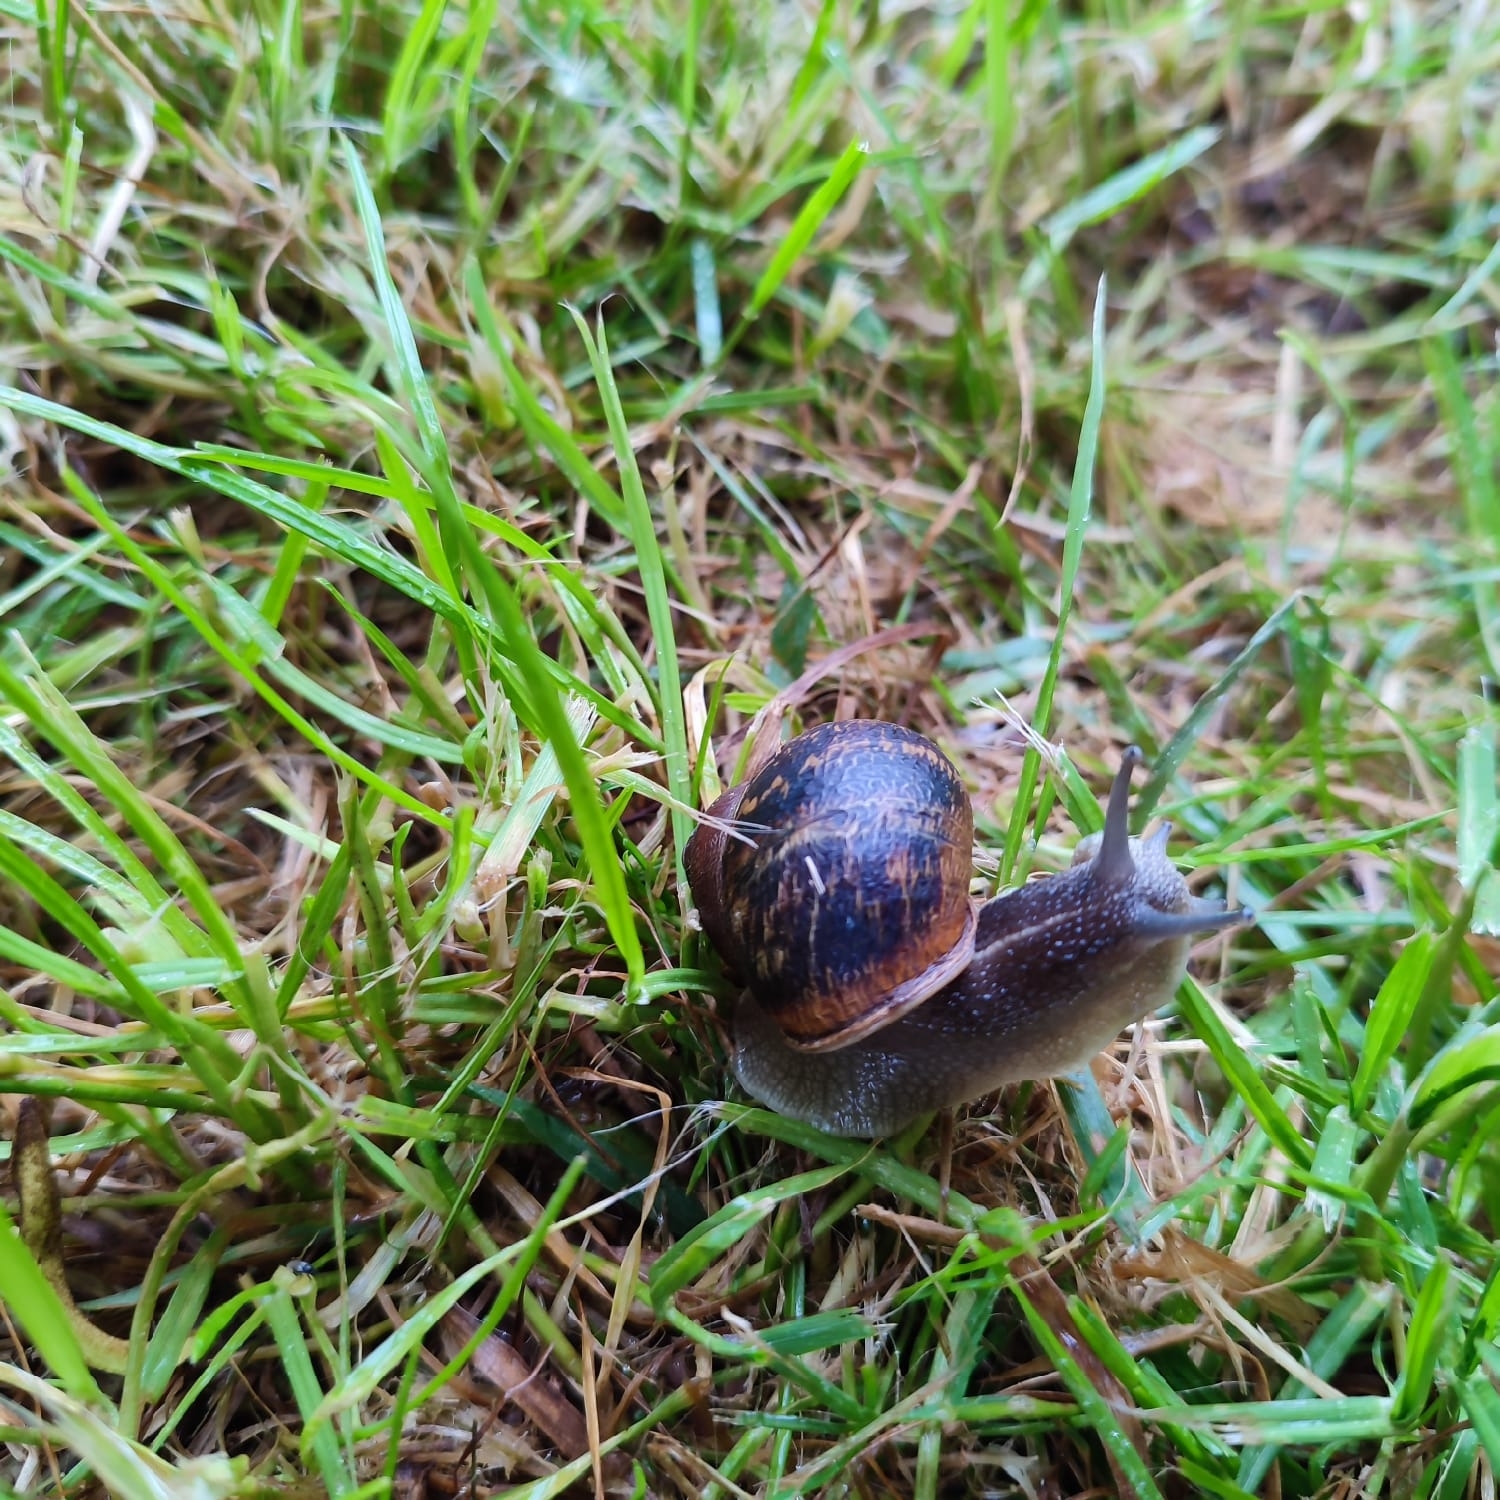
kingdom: Animalia
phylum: Mollusca
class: Gastropoda
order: Stylommatophora
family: Helicidae
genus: Cornu
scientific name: Cornu aspersum
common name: Brown garden snail
